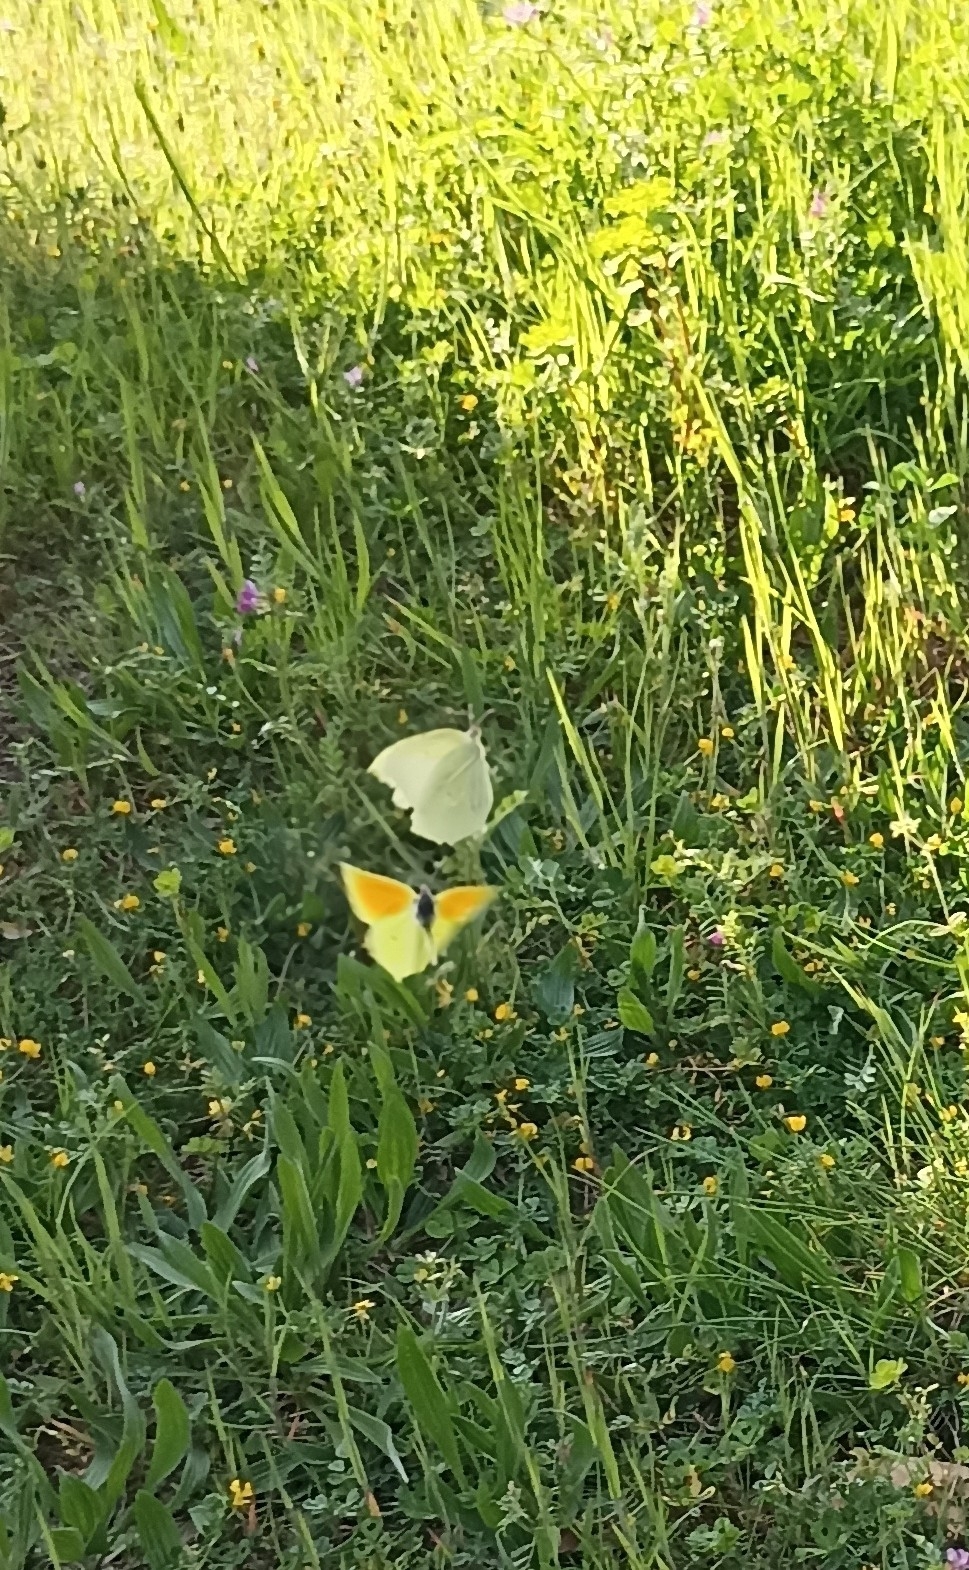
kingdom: Animalia
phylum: Arthropoda
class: Insecta
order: Lepidoptera
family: Pieridae
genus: Gonepteryx
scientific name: Gonepteryx cleopatra
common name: Cleopatra
